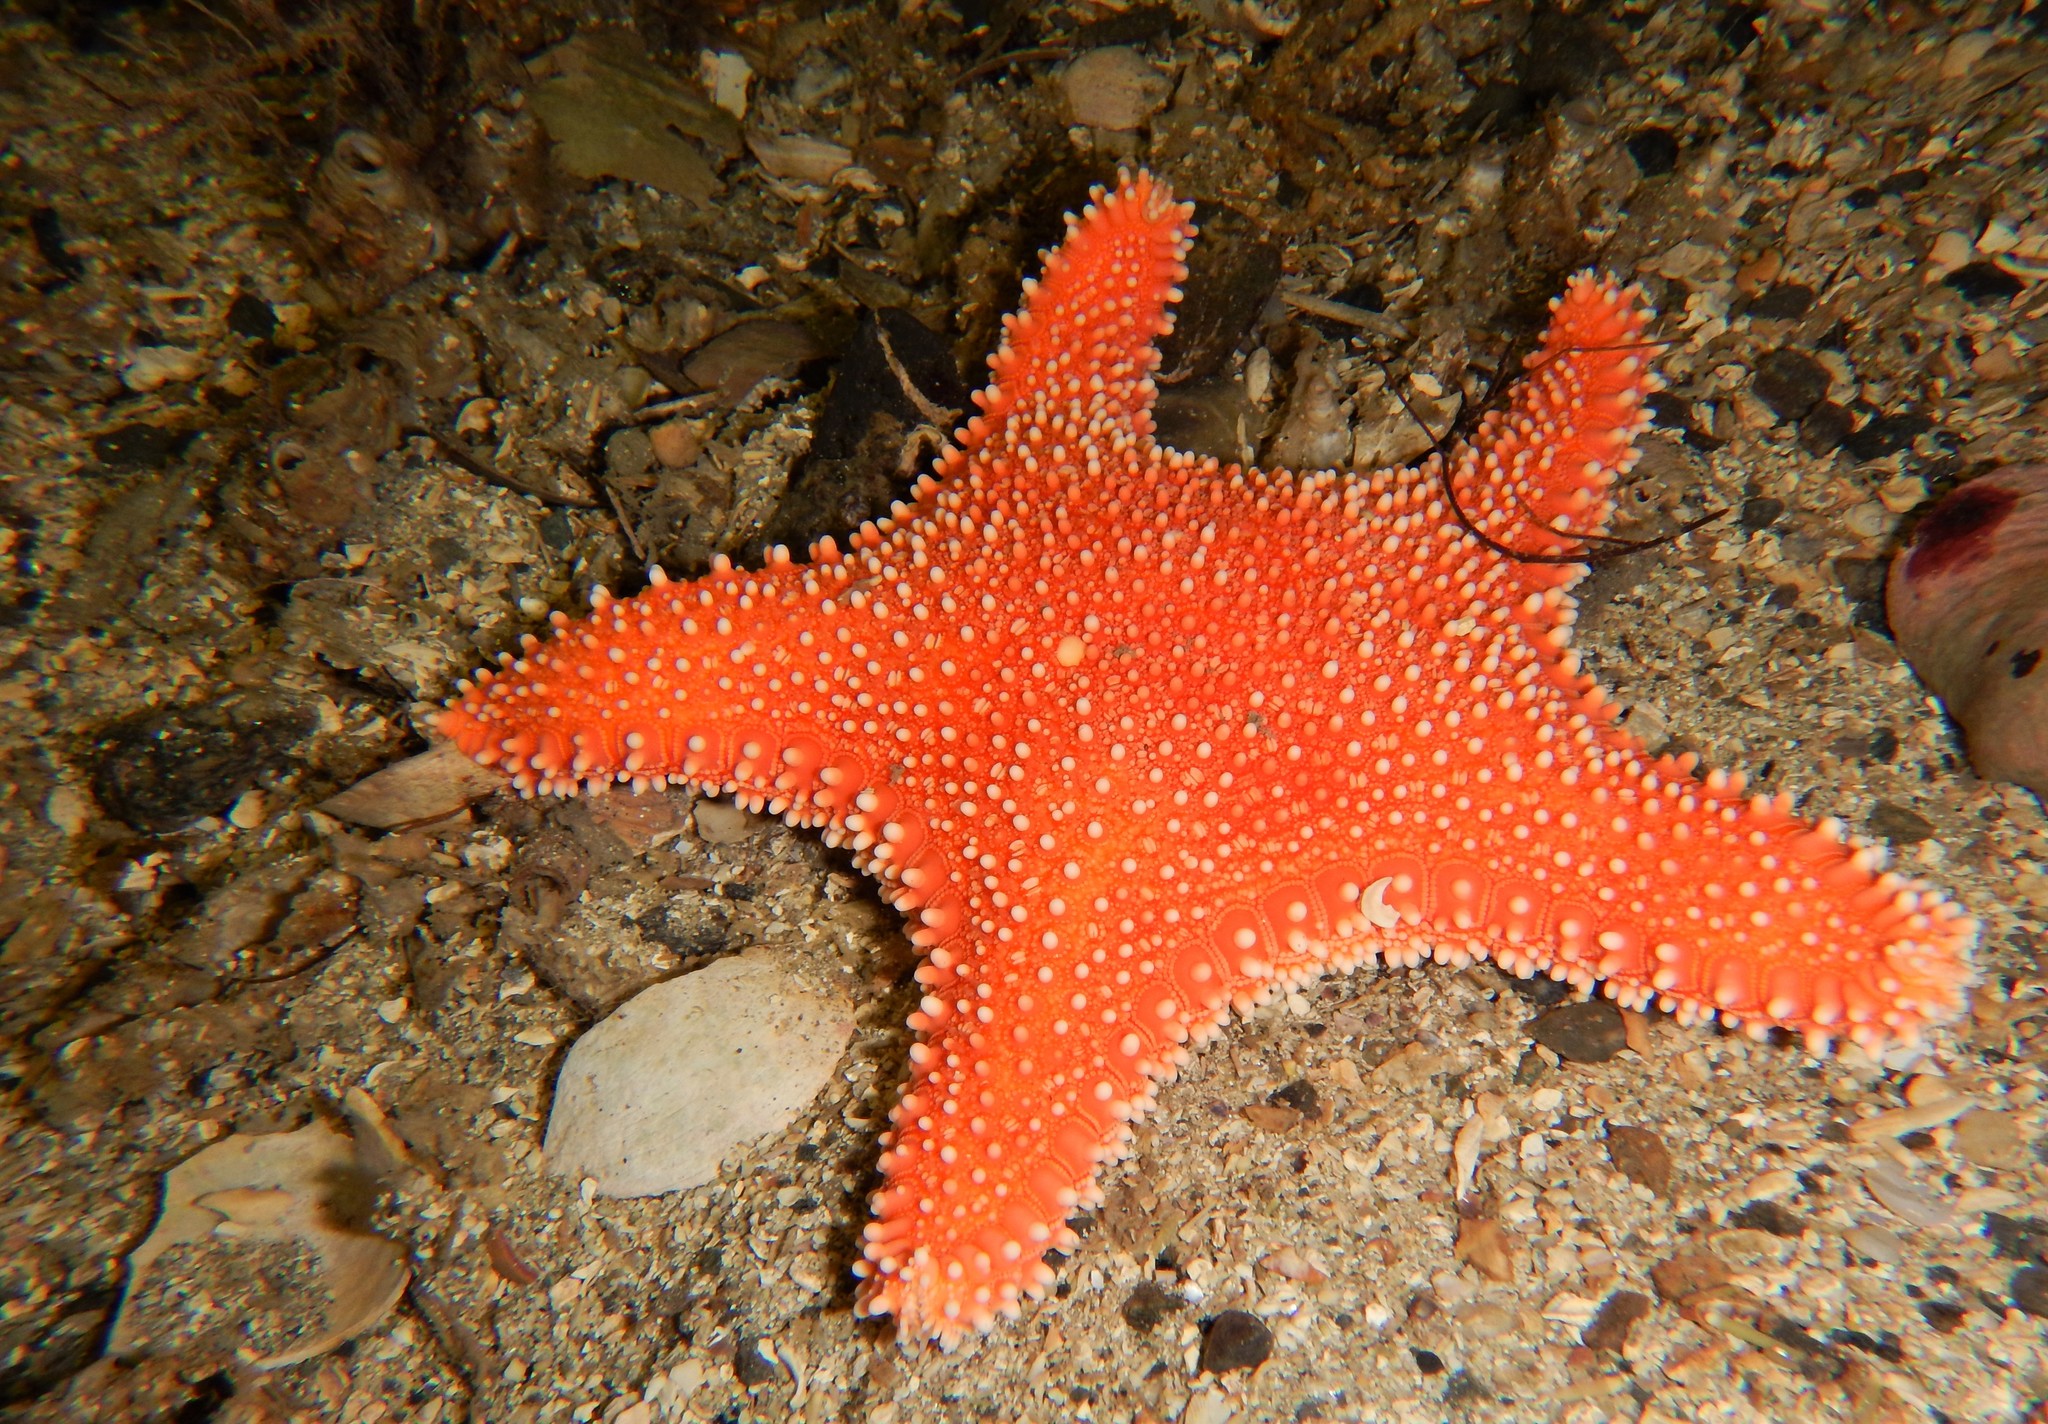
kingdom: Animalia
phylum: Echinodermata
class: Asteroidea
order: Valvatida
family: Goniasteridae
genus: Hippasteria
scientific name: Hippasteria phrygiana
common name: Arctic cushion star
